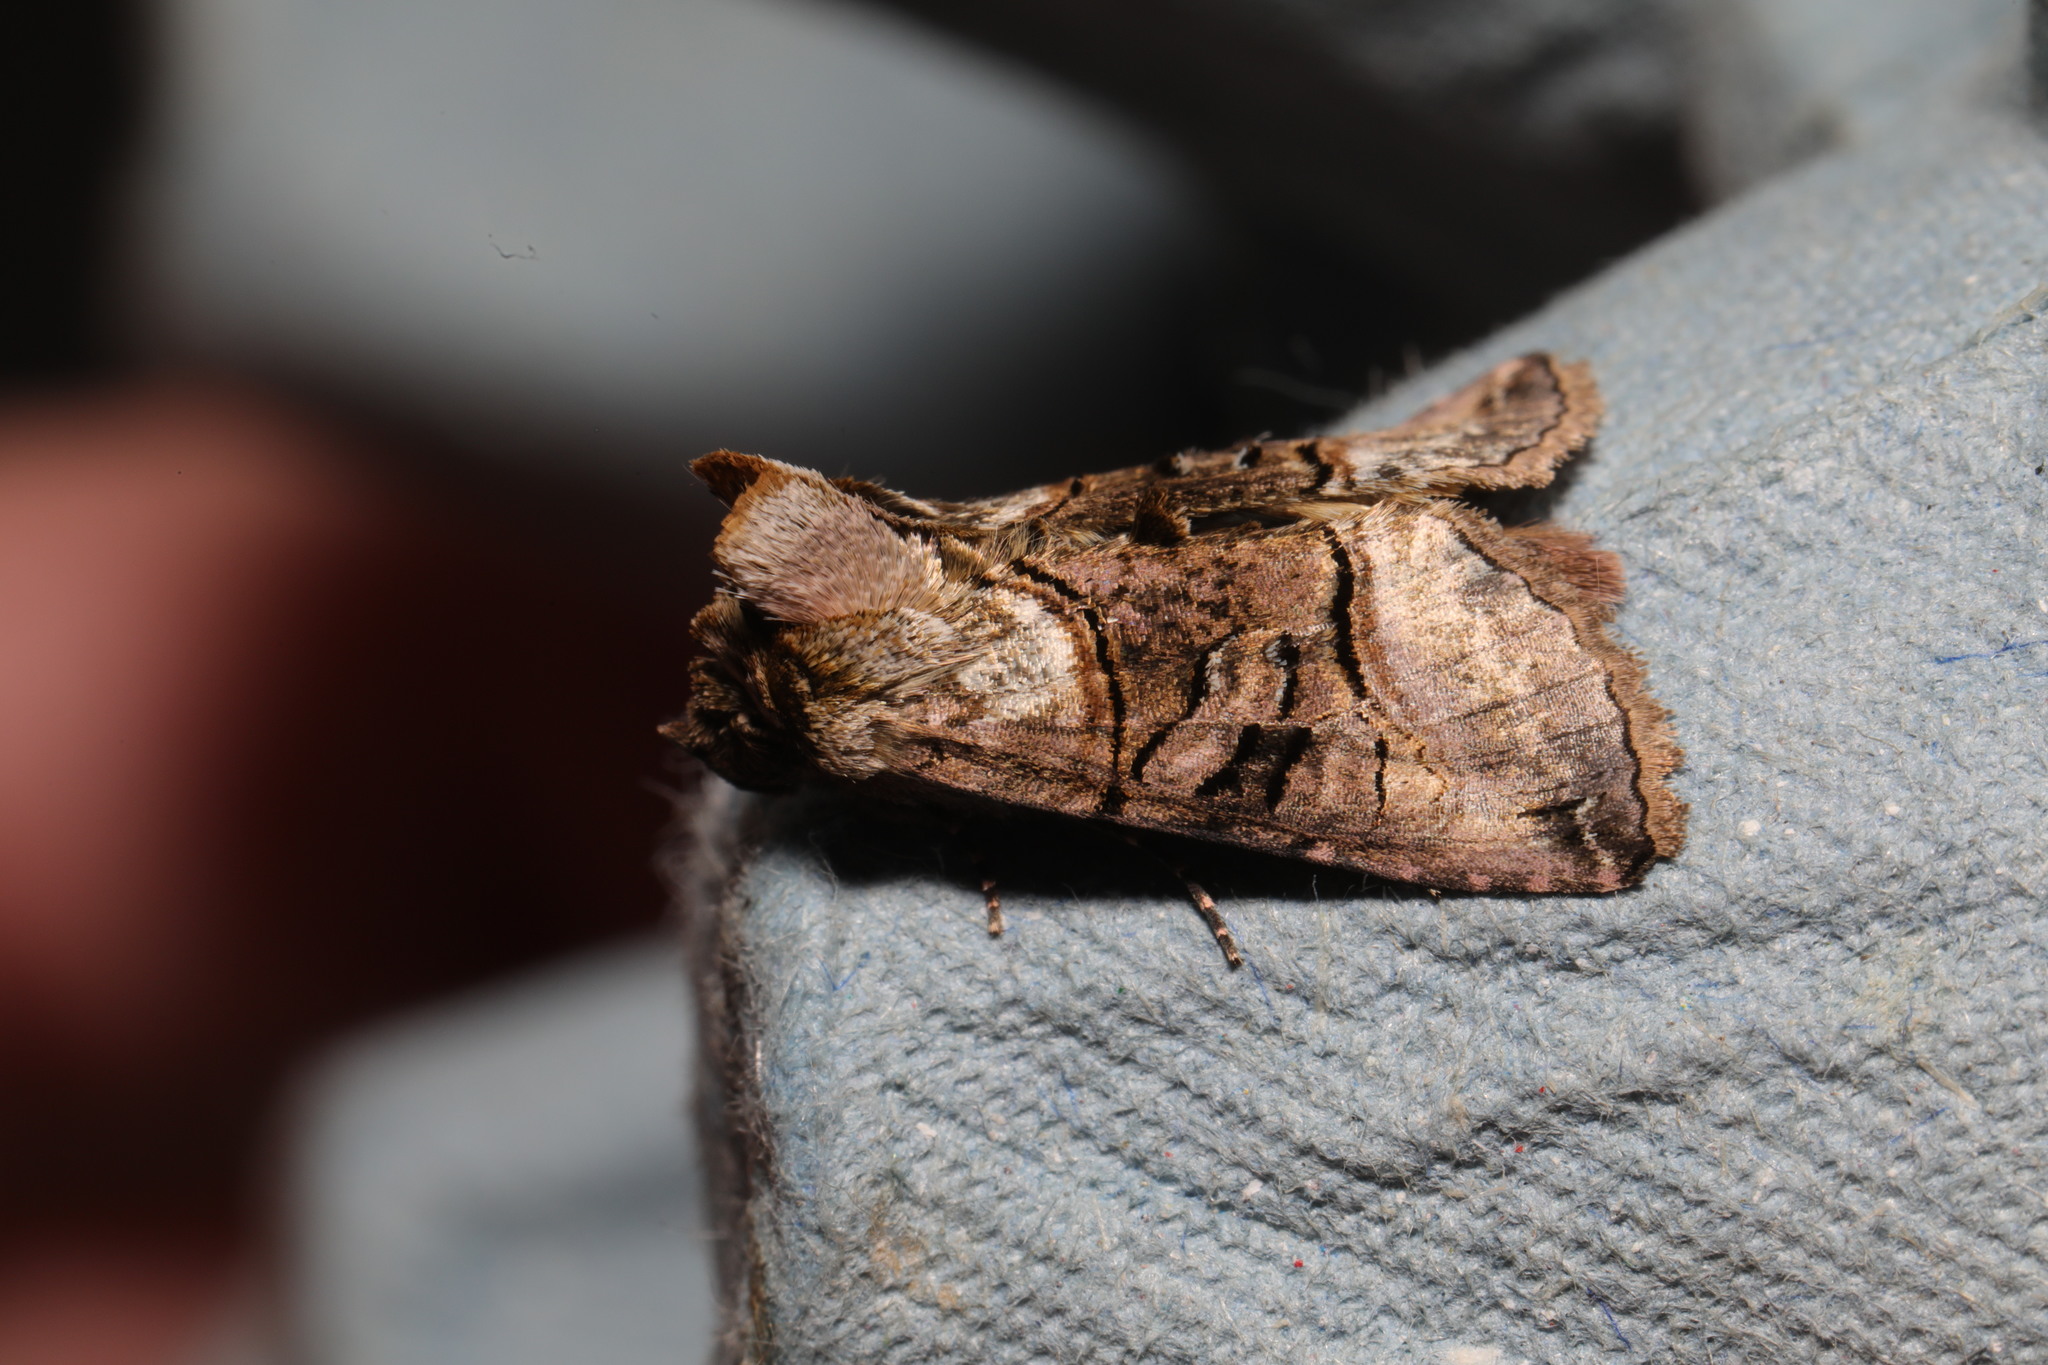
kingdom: Animalia
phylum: Arthropoda
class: Insecta
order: Lepidoptera
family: Noctuidae
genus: Abrostola
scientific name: Abrostola tripartita
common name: Spectacle
